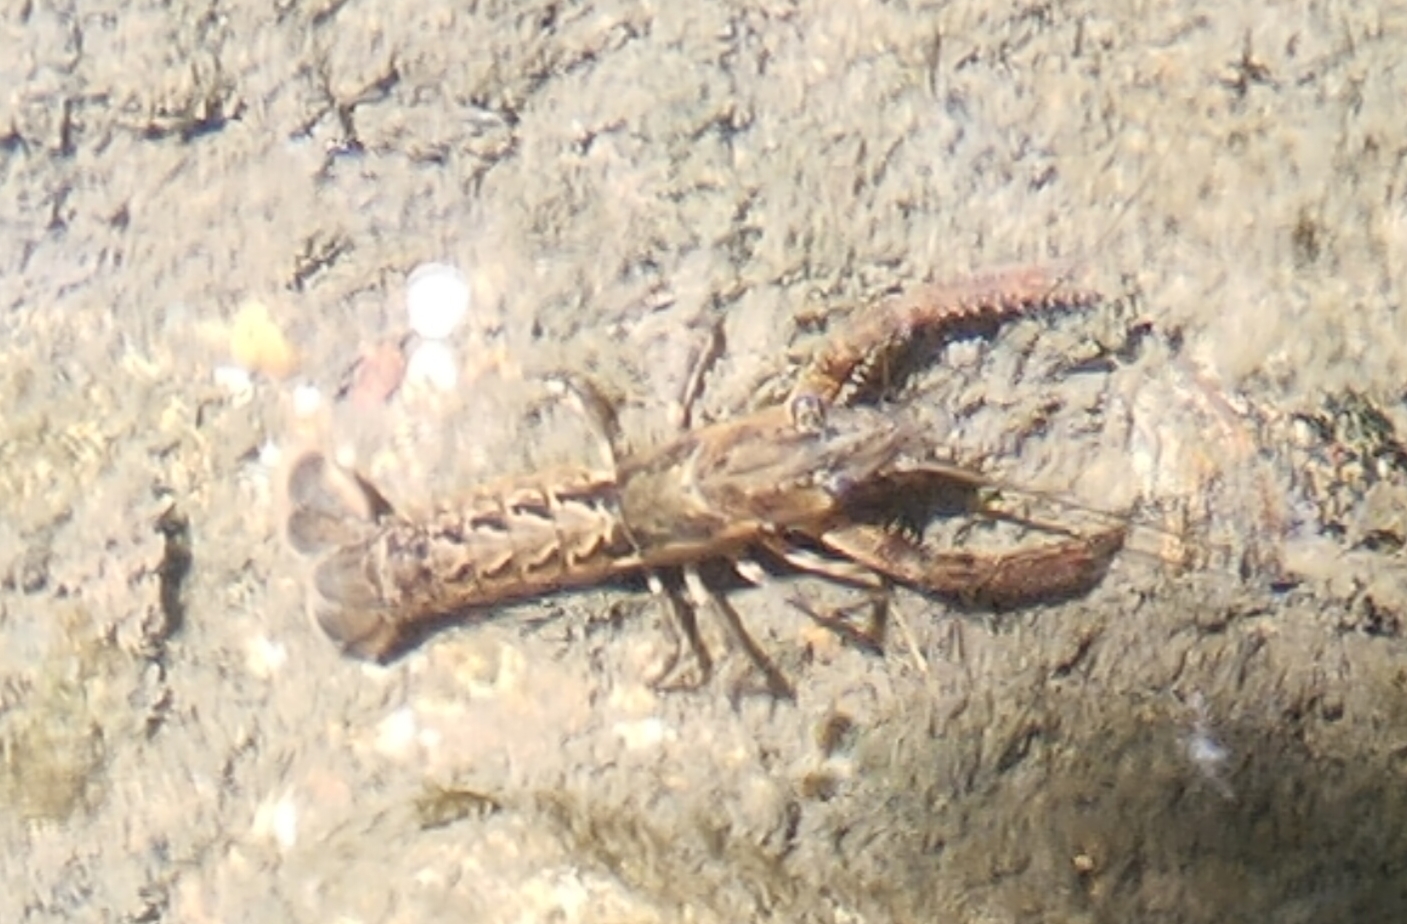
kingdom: Animalia
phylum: Arthropoda
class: Malacostraca
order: Decapoda
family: Parastacidae
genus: Paranephrops
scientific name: Paranephrops planifrons
